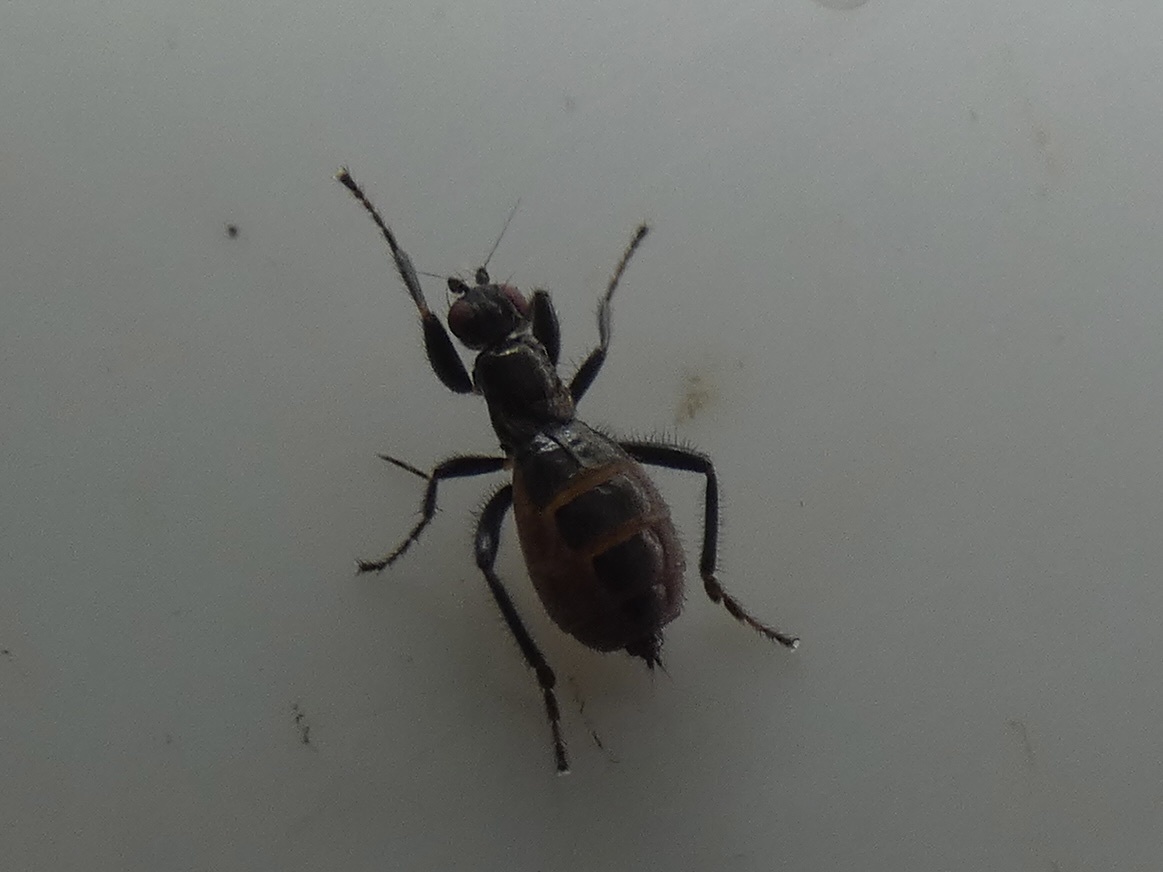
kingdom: Animalia
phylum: Arthropoda
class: Insecta
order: Diptera
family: Sphaeroceridae
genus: Crumomyia
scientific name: Crumomyia pedestris
